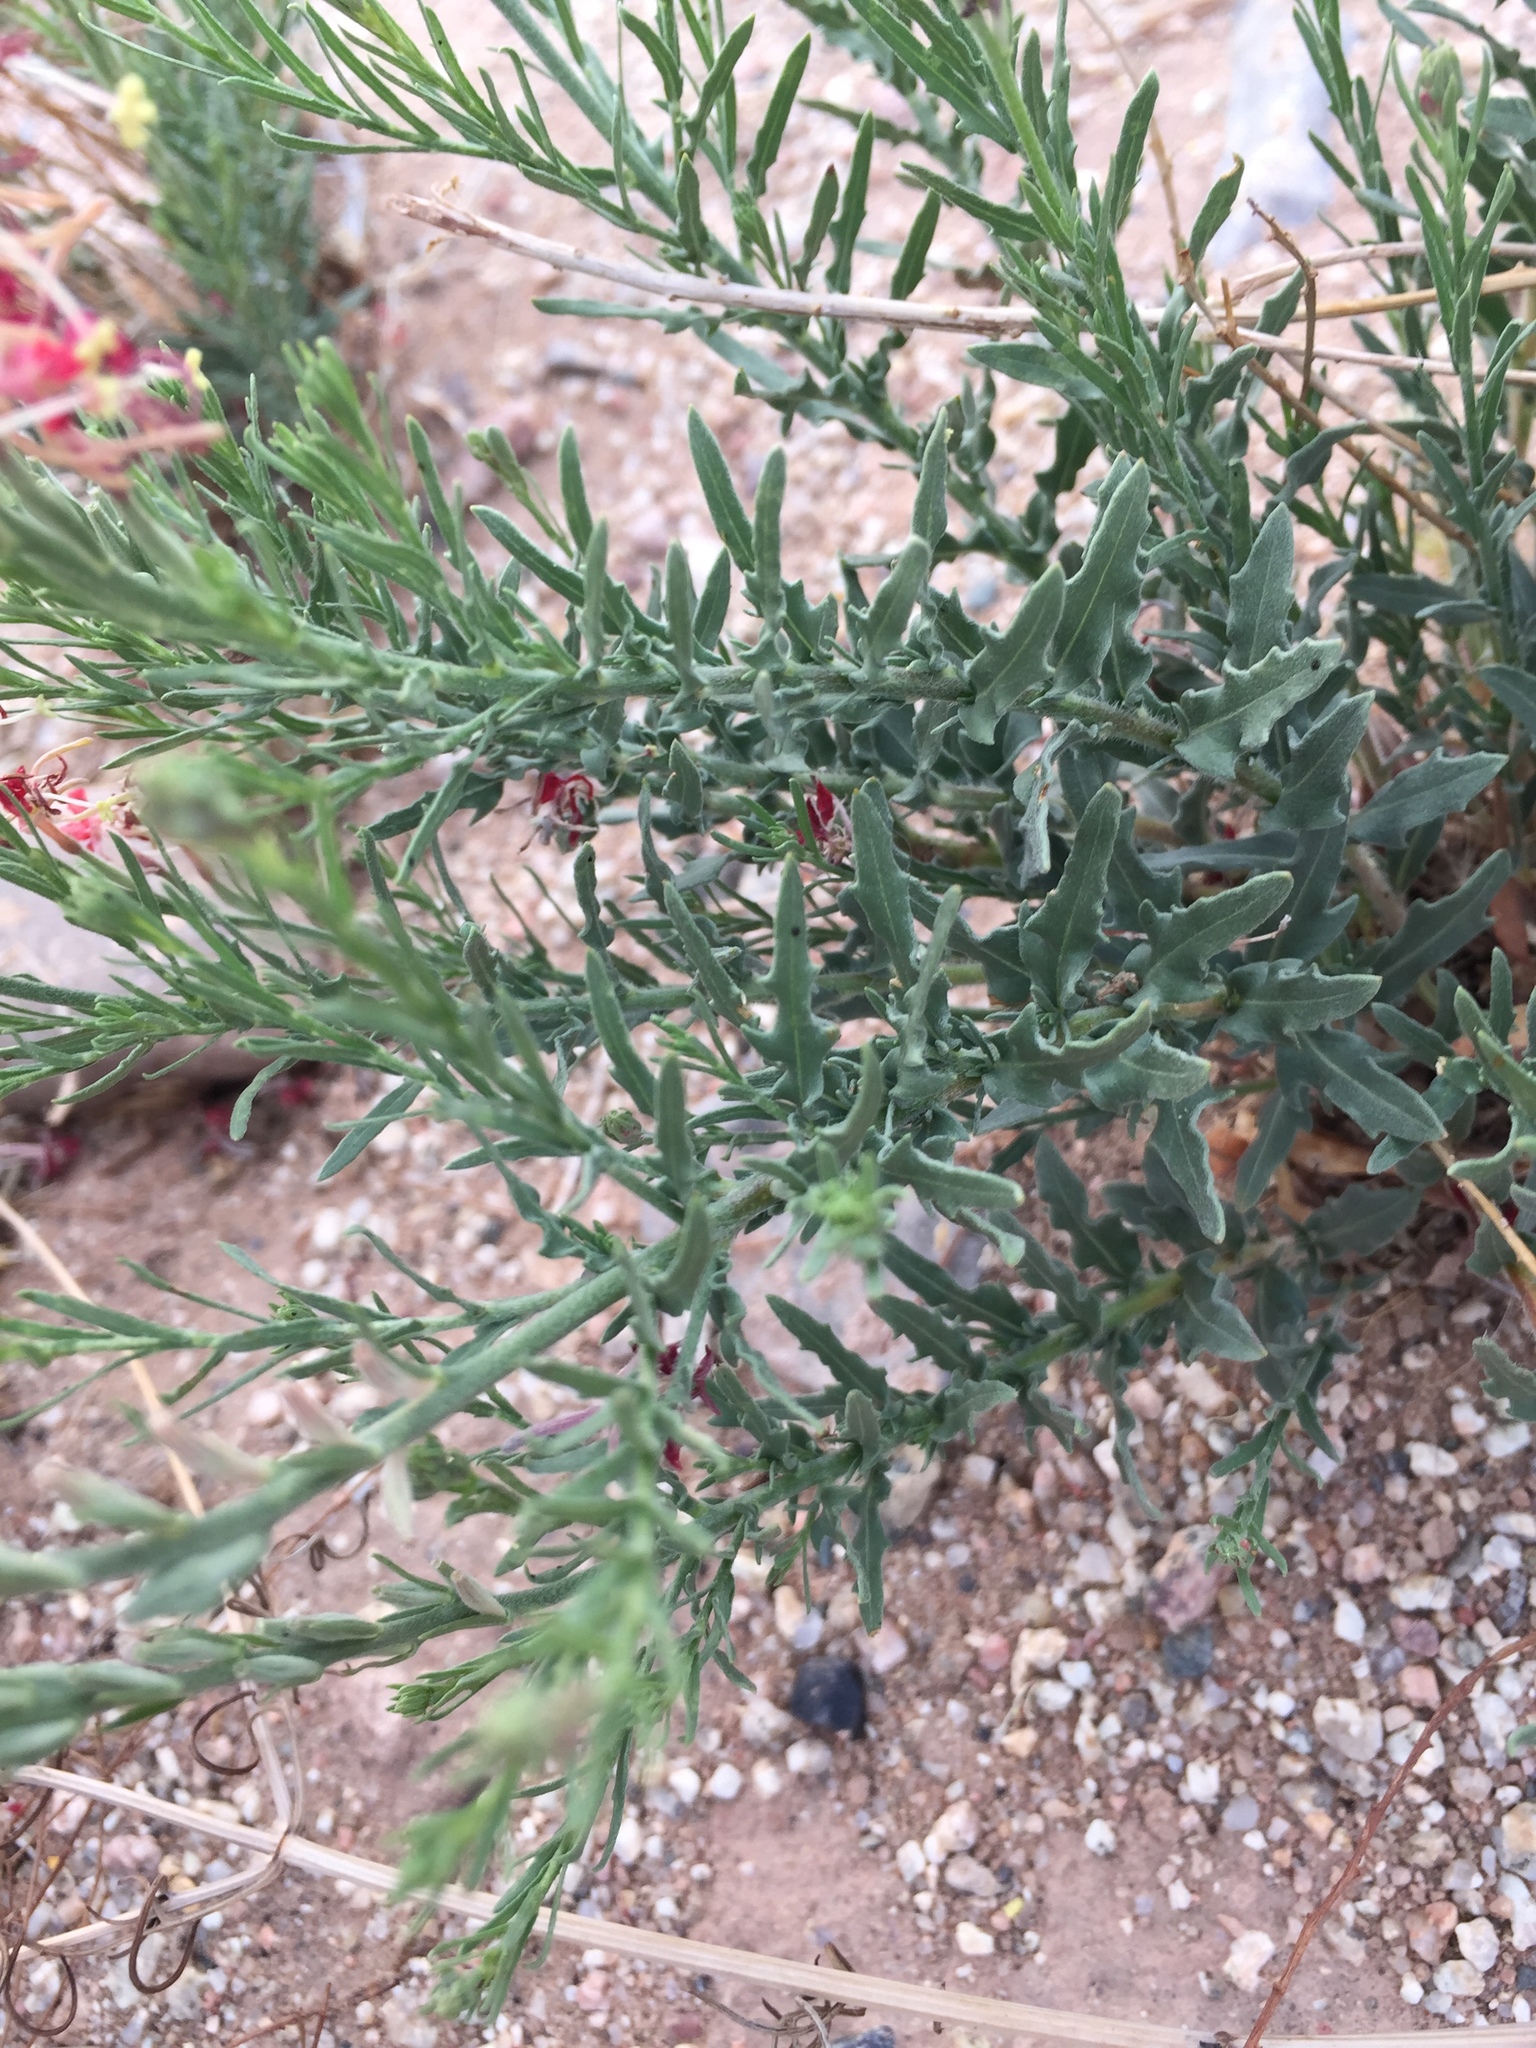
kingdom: Plantae
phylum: Tracheophyta
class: Magnoliopsida
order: Myrtales
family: Onagraceae
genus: Oenothera
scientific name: Oenothera suffrutescens
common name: Scarlet beeblossom
